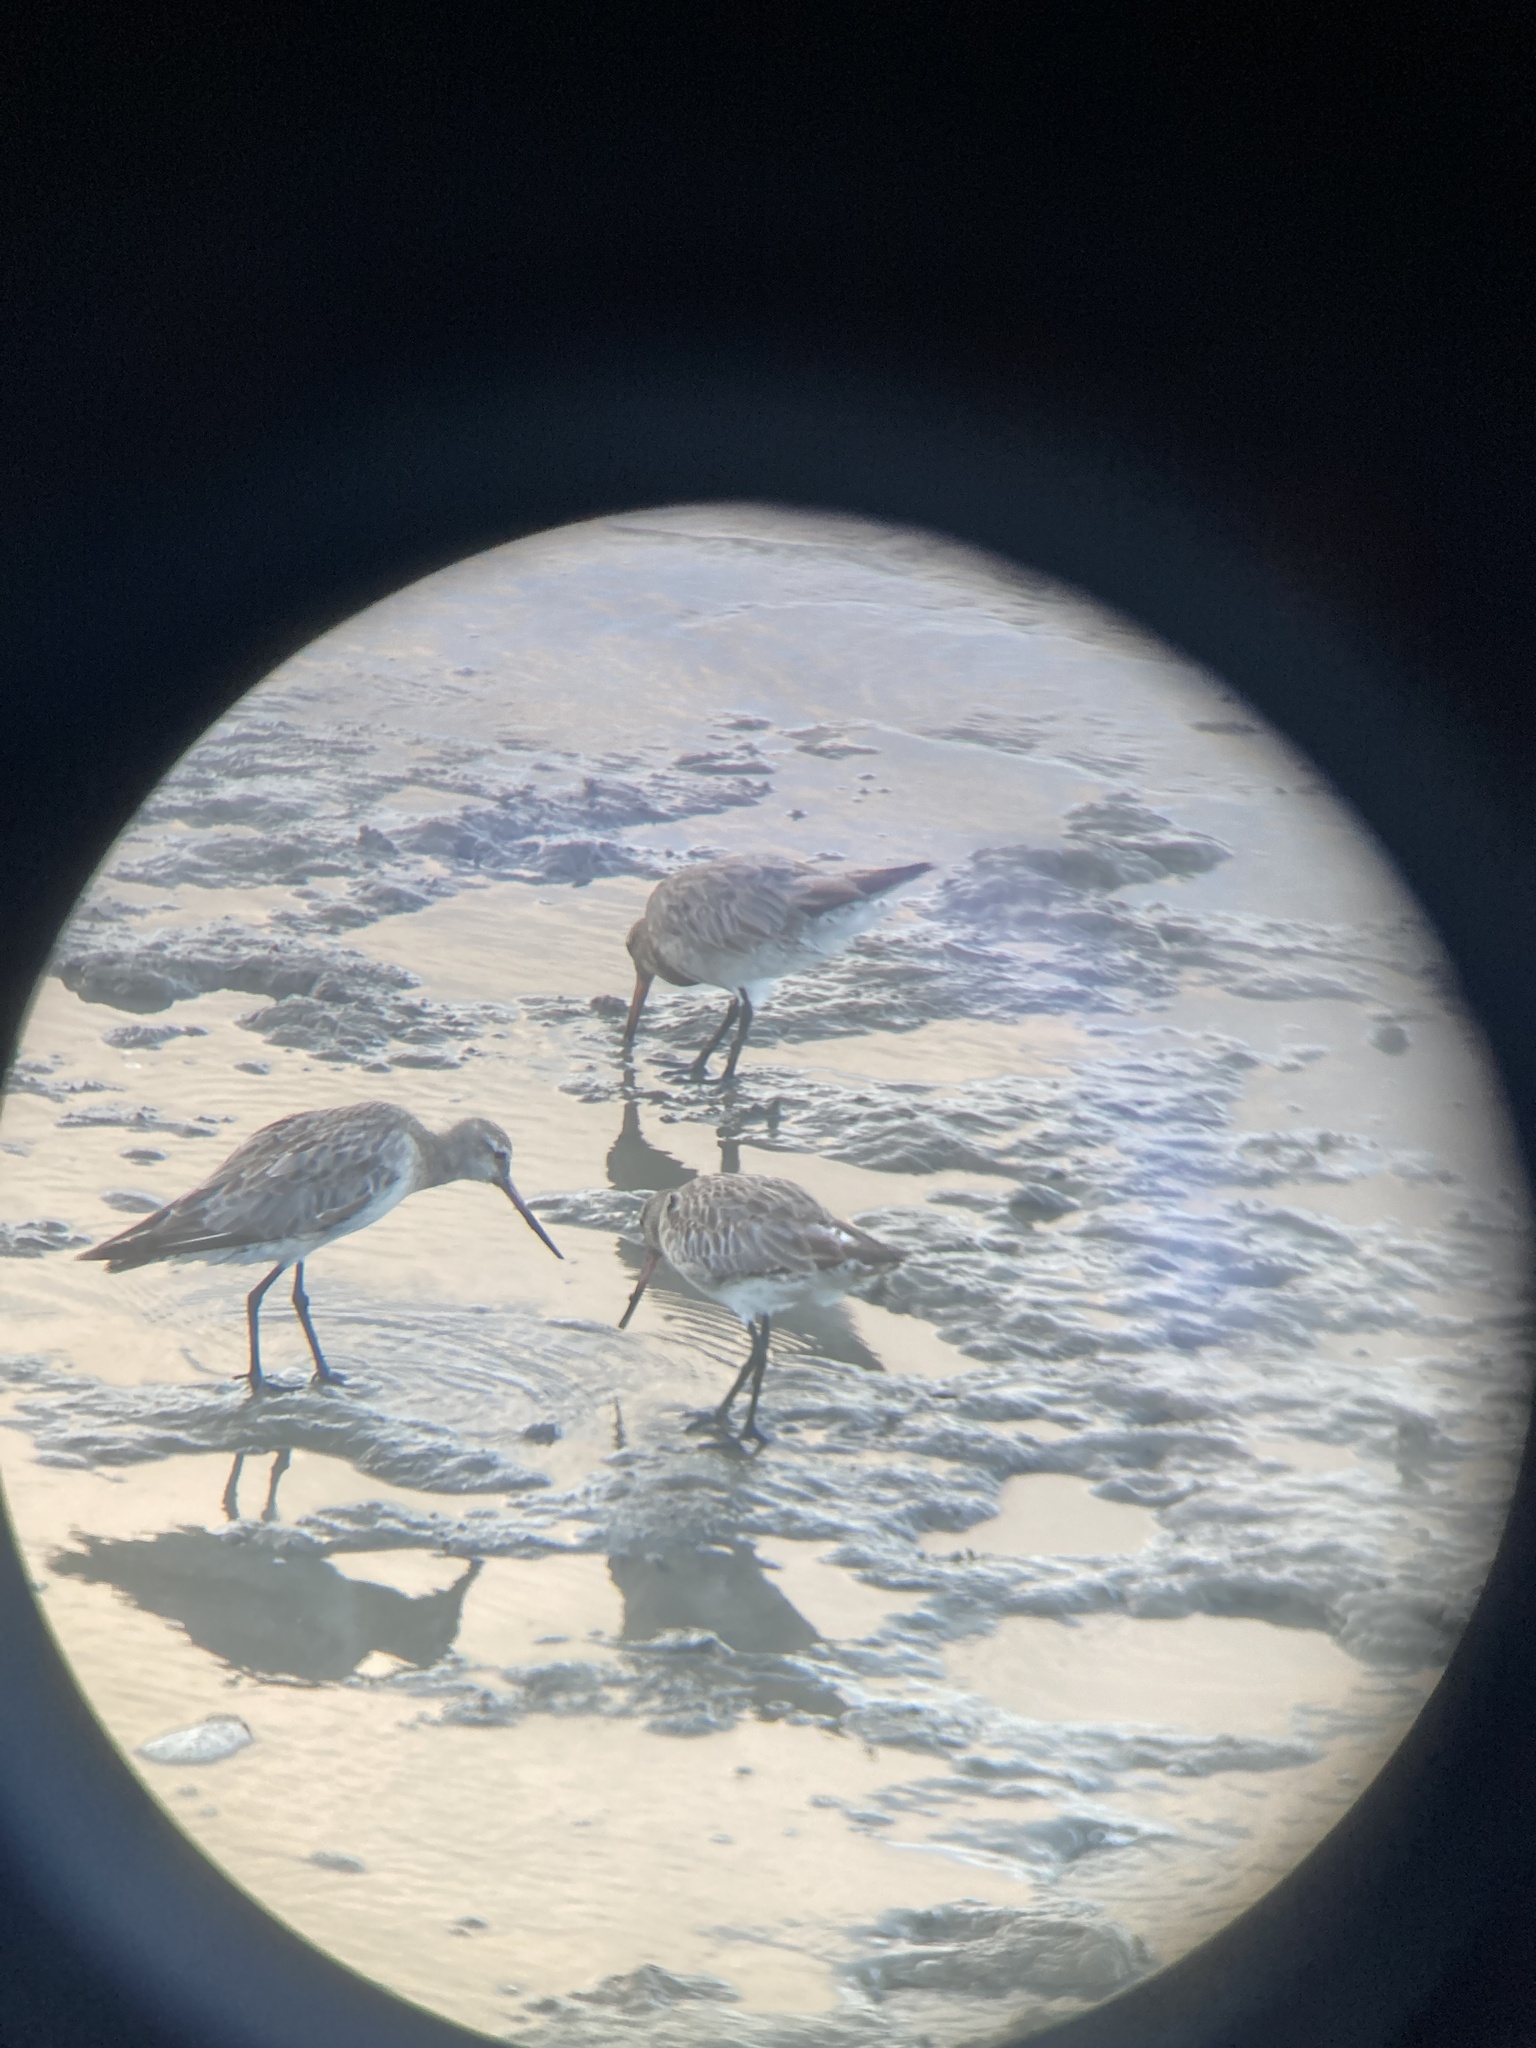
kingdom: Animalia
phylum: Chordata
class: Aves
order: Charadriiformes
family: Scolopacidae
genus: Limosa
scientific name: Limosa lapponica
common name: Bar-tailed godwit
